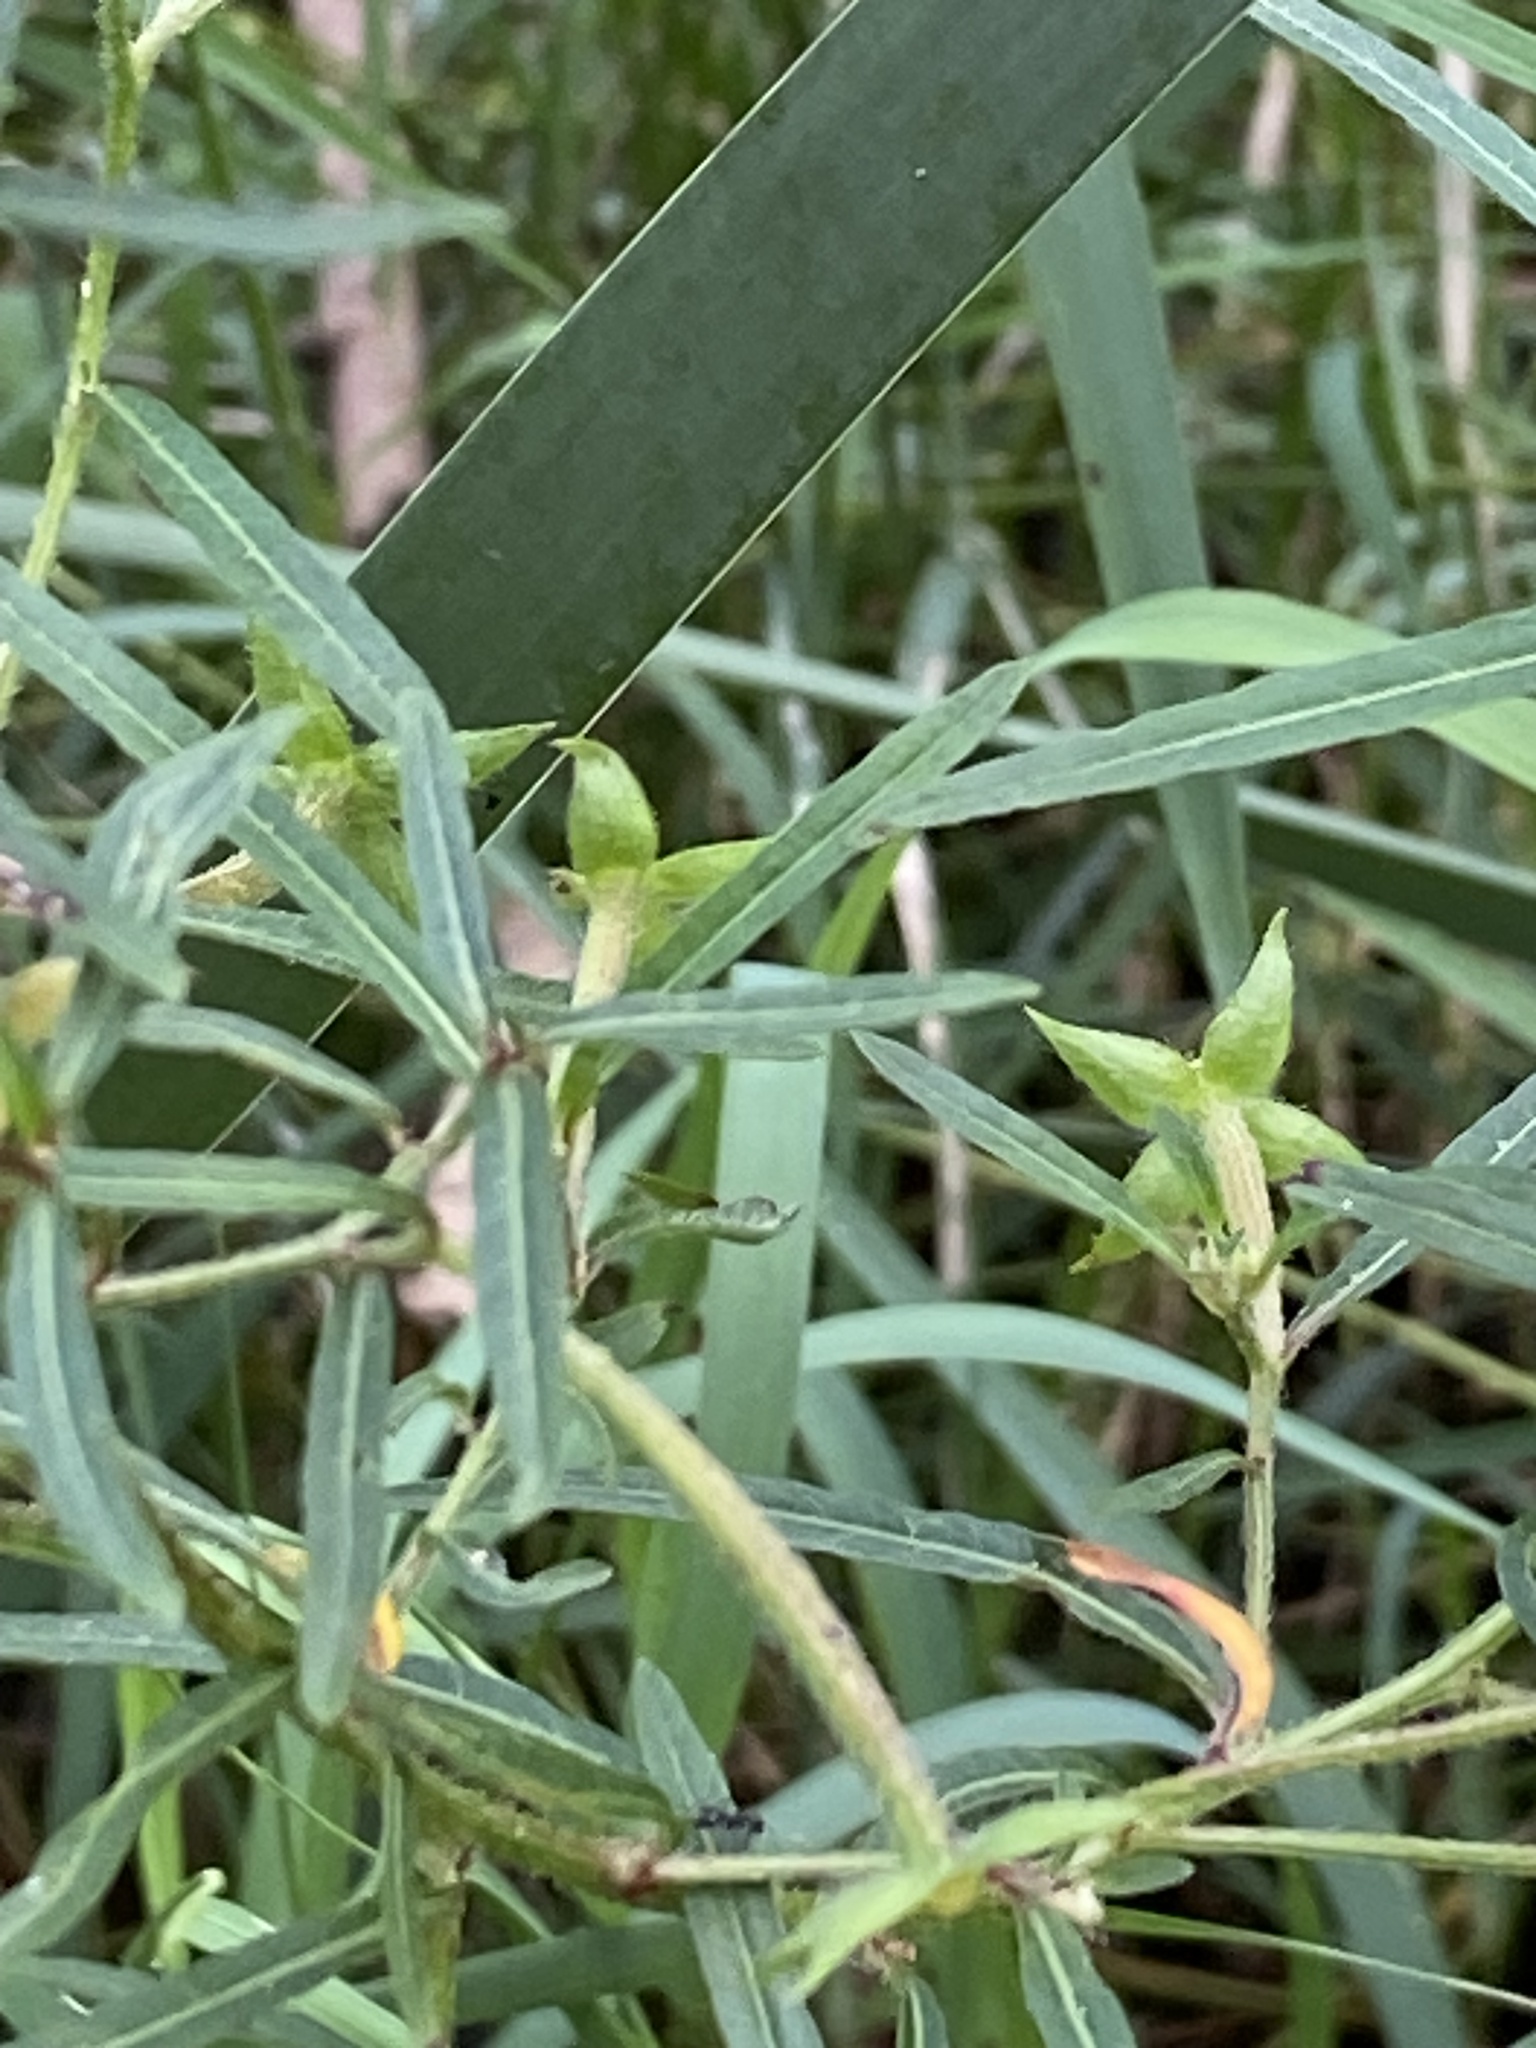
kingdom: Plantae
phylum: Tracheophyta
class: Magnoliopsida
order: Myrtales
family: Onagraceae
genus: Ludwigia
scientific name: Ludwigia octovalvis
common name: Water-primrose
